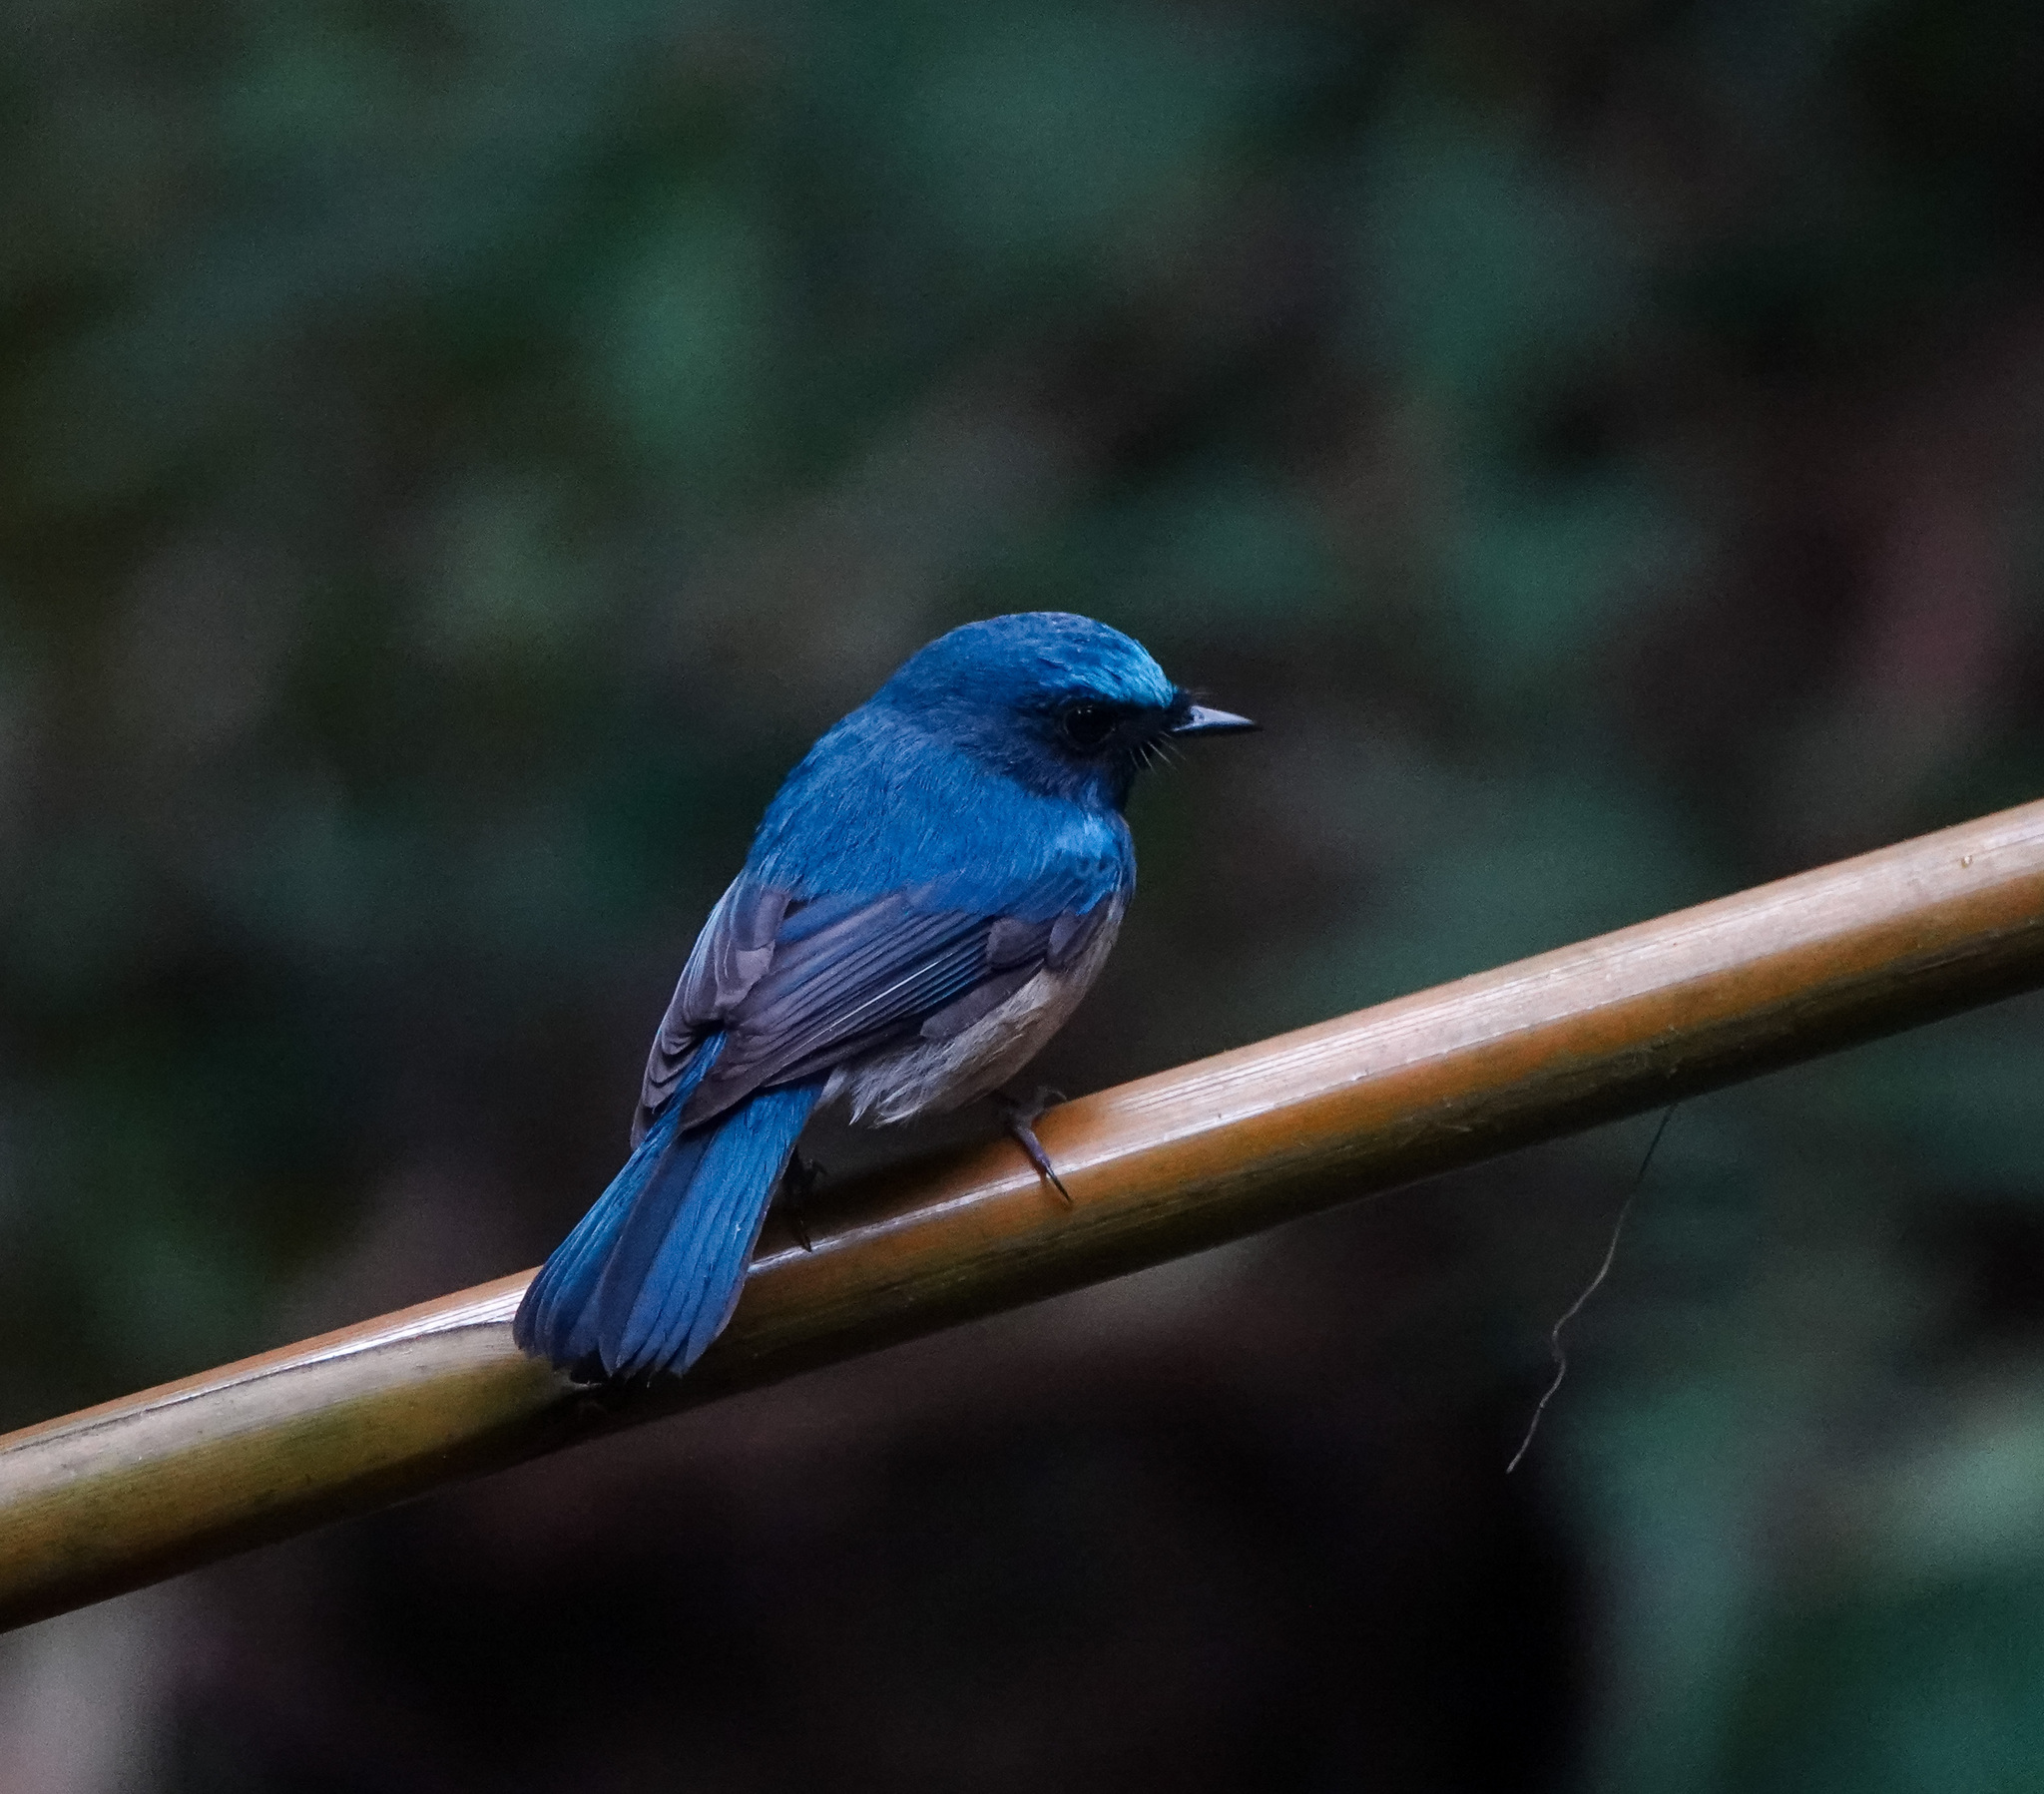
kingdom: Animalia
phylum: Chordata
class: Aves
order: Passeriformes
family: Muscicapidae
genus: Cyornis
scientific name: Cyornis rubeculoides
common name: Blue-throated blue flycatcher
